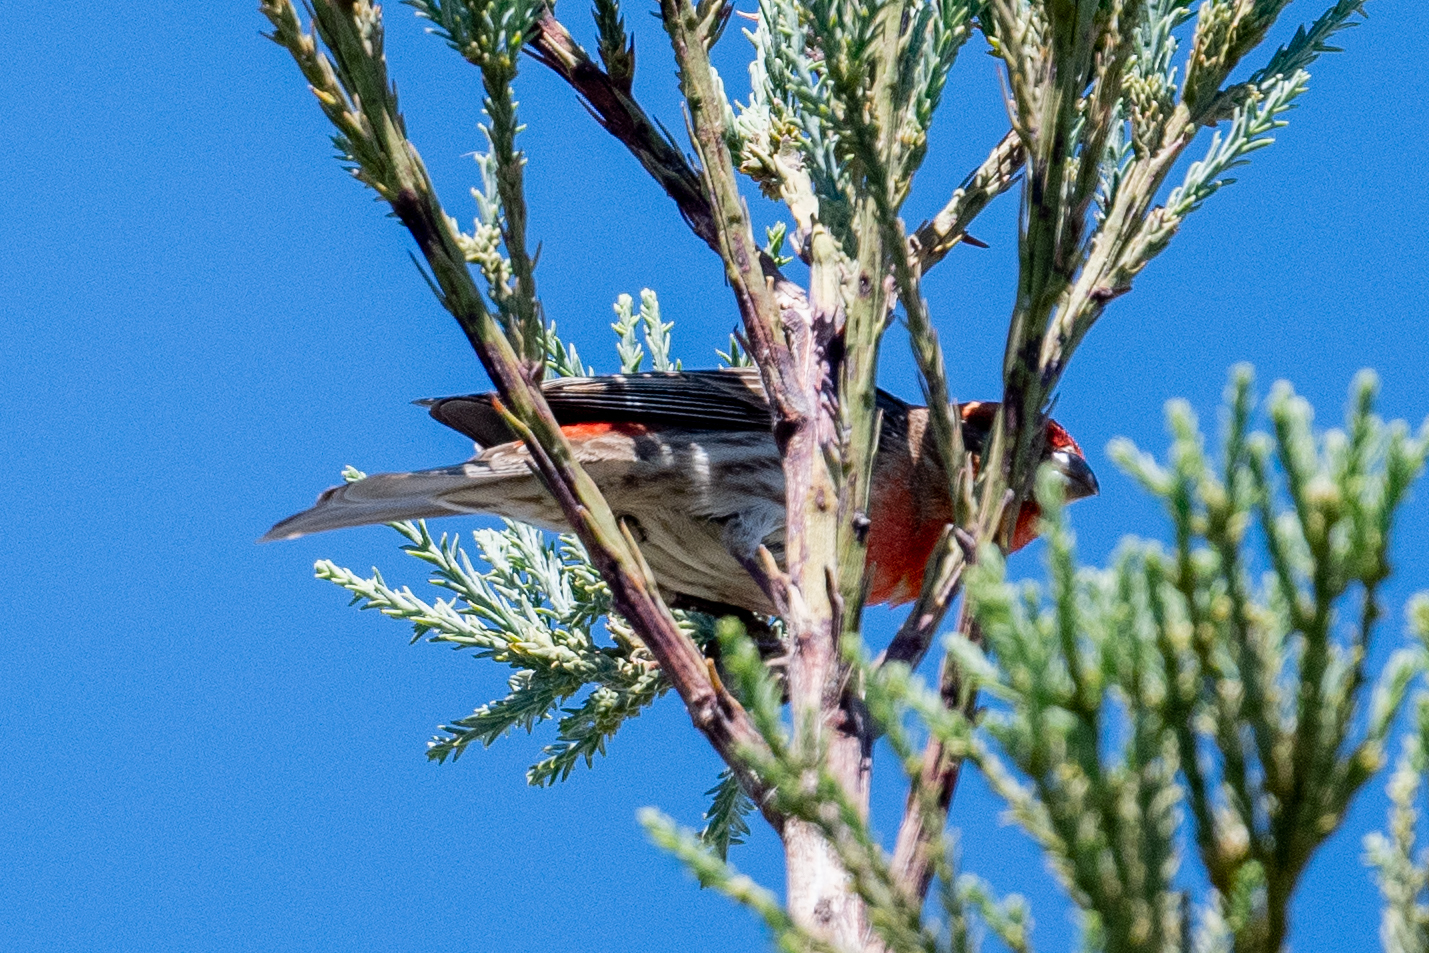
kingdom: Animalia
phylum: Chordata
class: Aves
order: Passeriformes
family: Fringillidae
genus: Haemorhous
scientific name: Haemorhous mexicanus
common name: House finch
